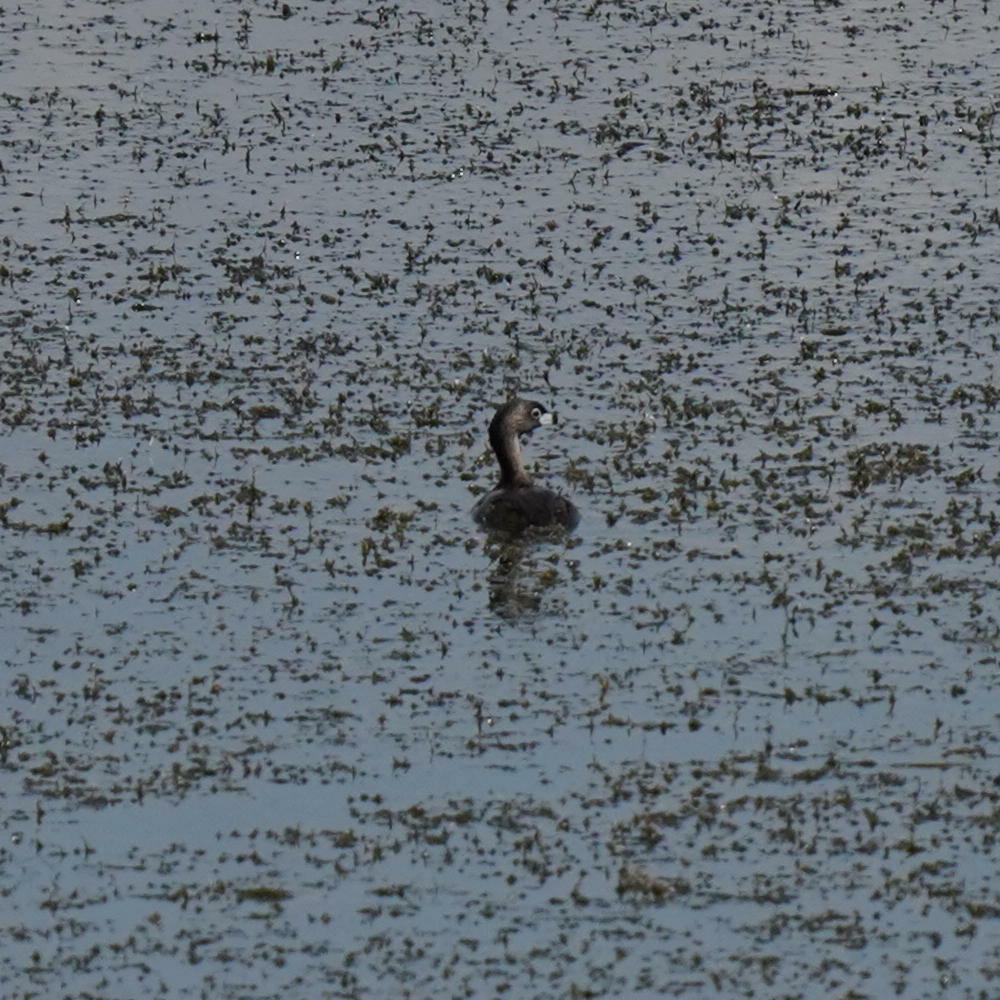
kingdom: Animalia
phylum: Chordata
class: Aves
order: Podicipediformes
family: Podicipedidae
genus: Podilymbus
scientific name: Podilymbus podiceps
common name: Pied-billed grebe
